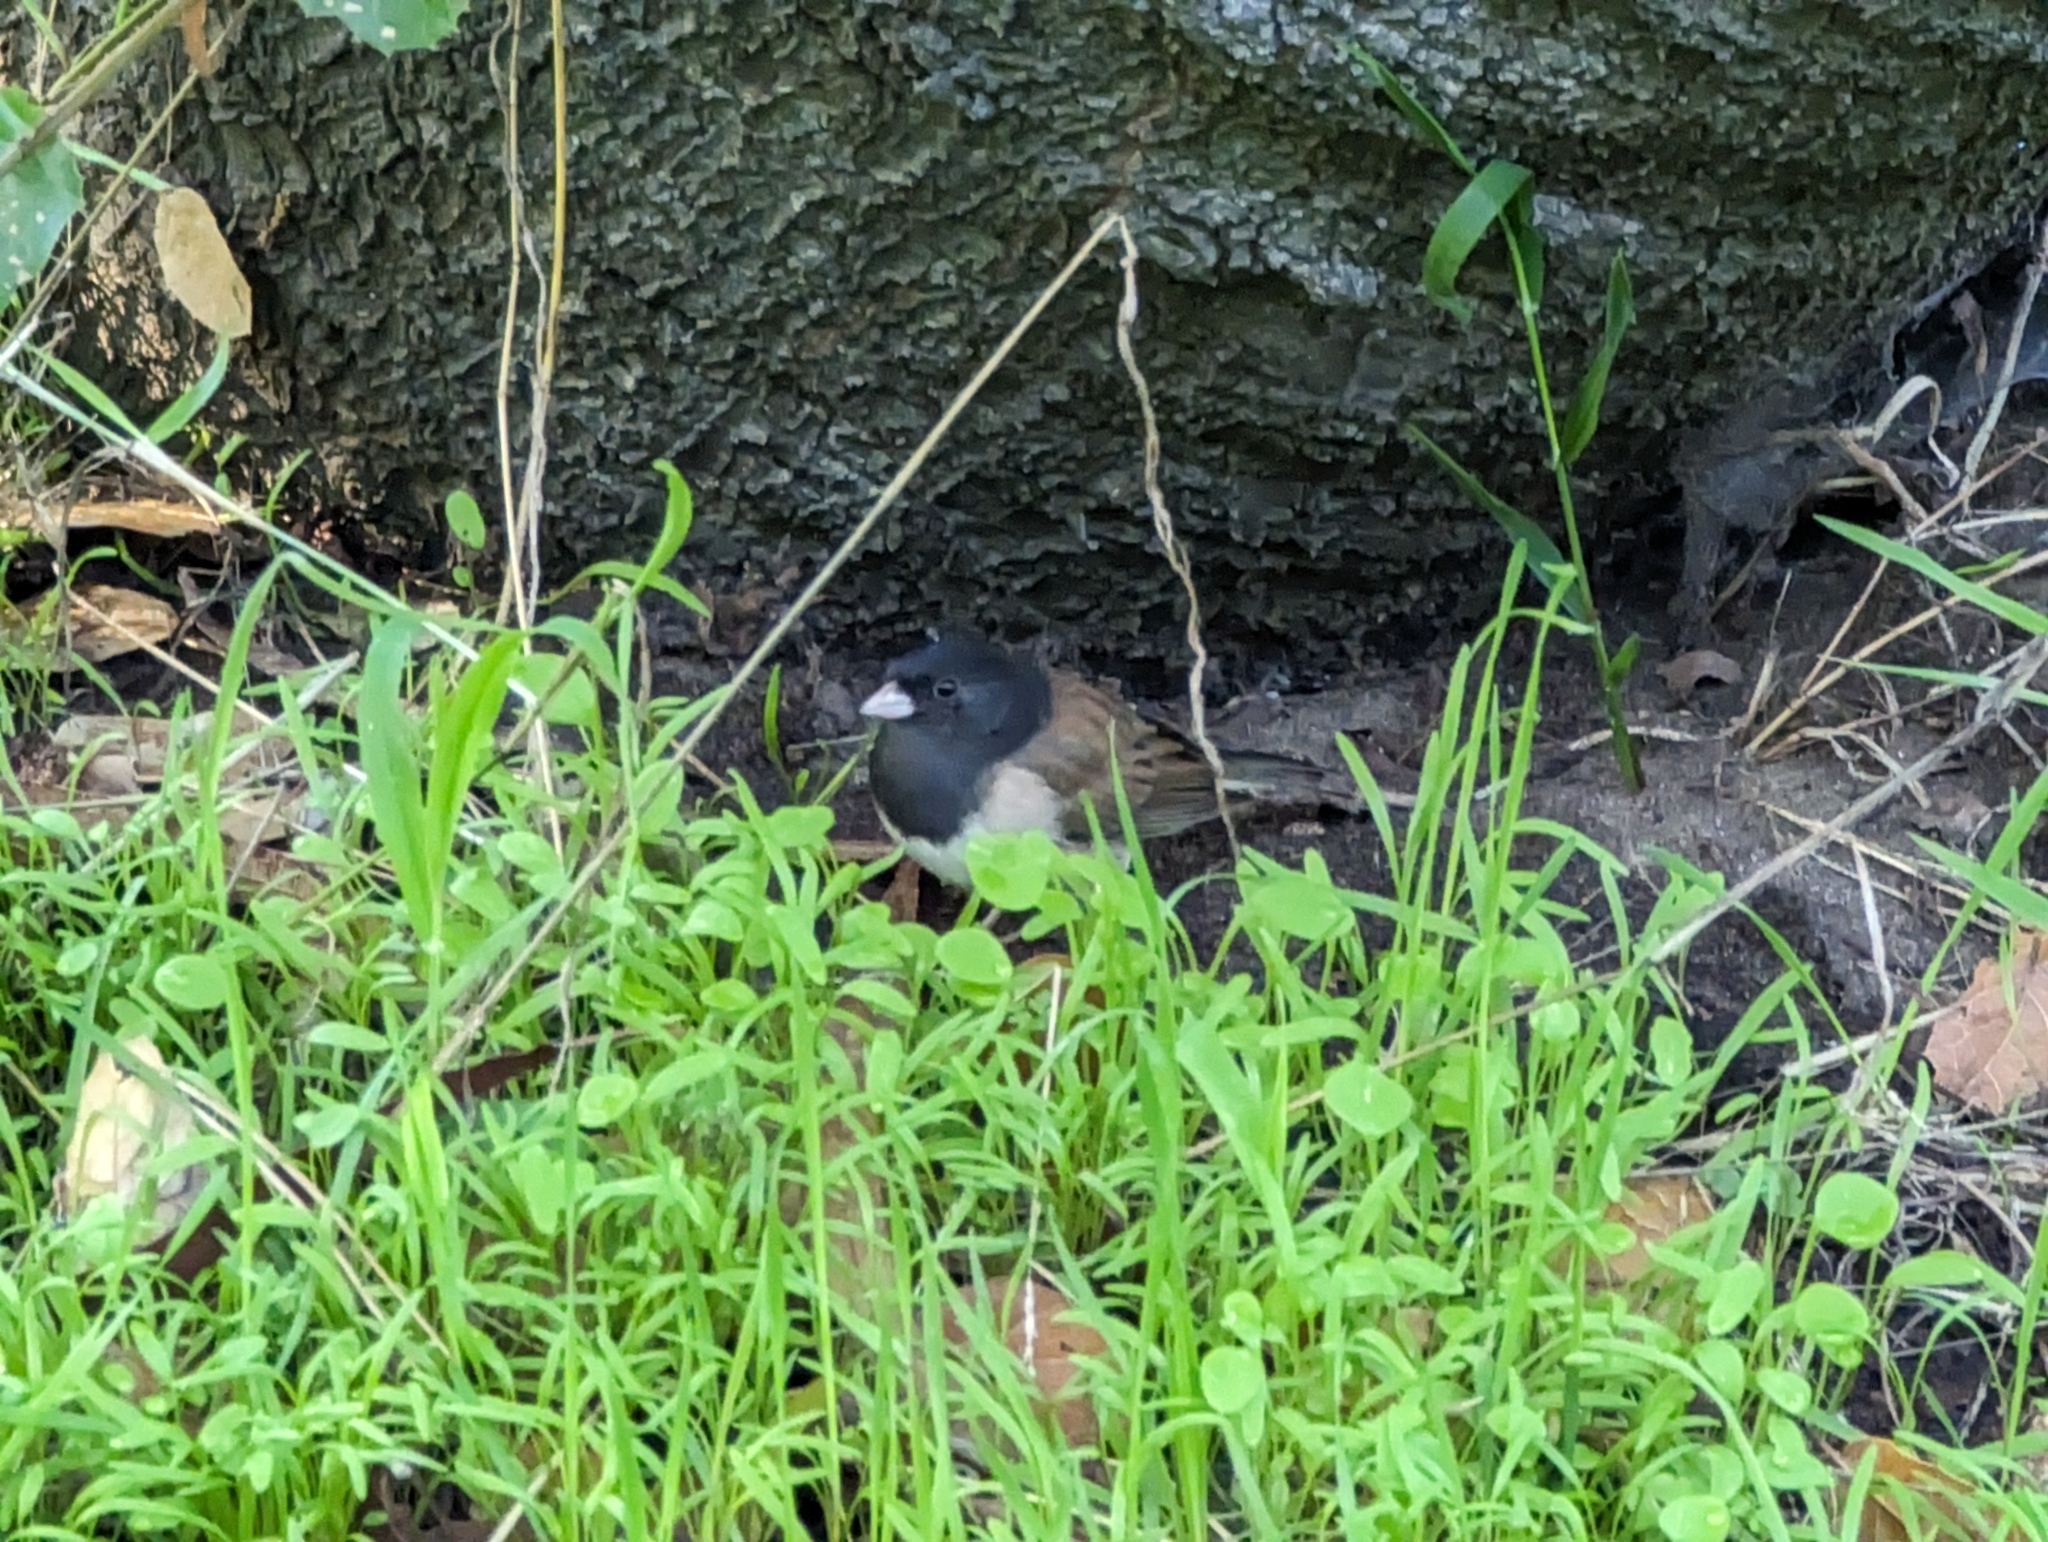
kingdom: Animalia
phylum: Chordata
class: Aves
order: Passeriformes
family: Passerellidae
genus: Junco
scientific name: Junco hyemalis
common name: Dark-eyed junco
